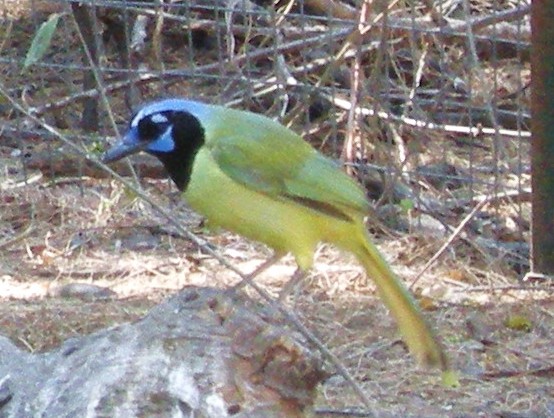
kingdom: Animalia
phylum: Chordata
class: Aves
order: Passeriformes
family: Corvidae
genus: Cyanocorax
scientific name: Cyanocorax yncas
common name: Green jay
